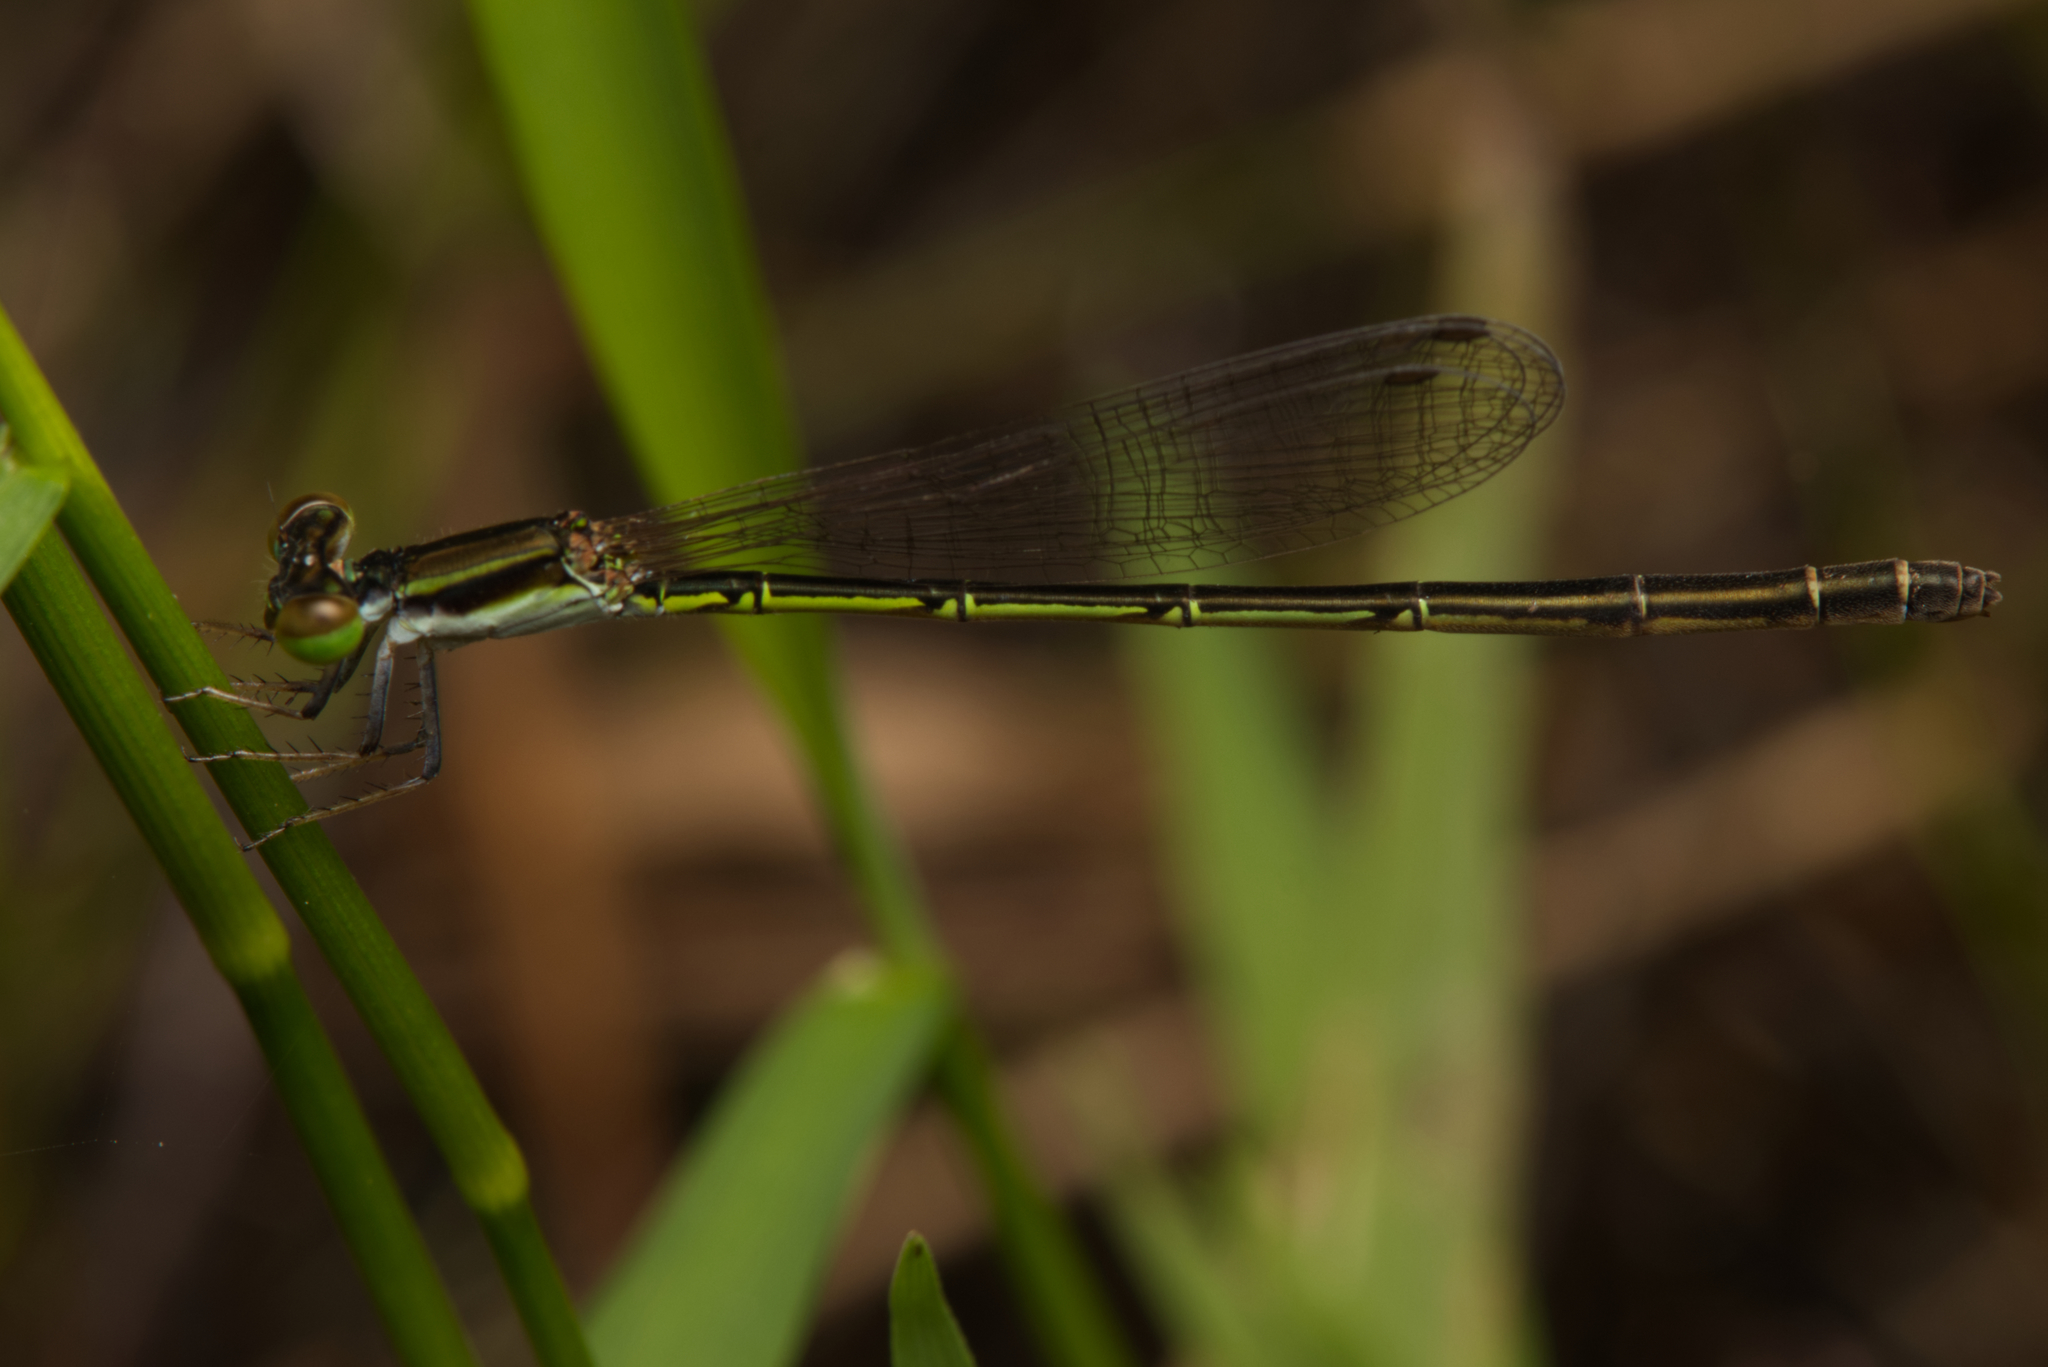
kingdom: Animalia
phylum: Arthropoda
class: Insecta
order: Odonata
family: Coenagrionidae
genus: Agriocnemis
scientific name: Agriocnemis rubricauda
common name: Red-rumped wisp
